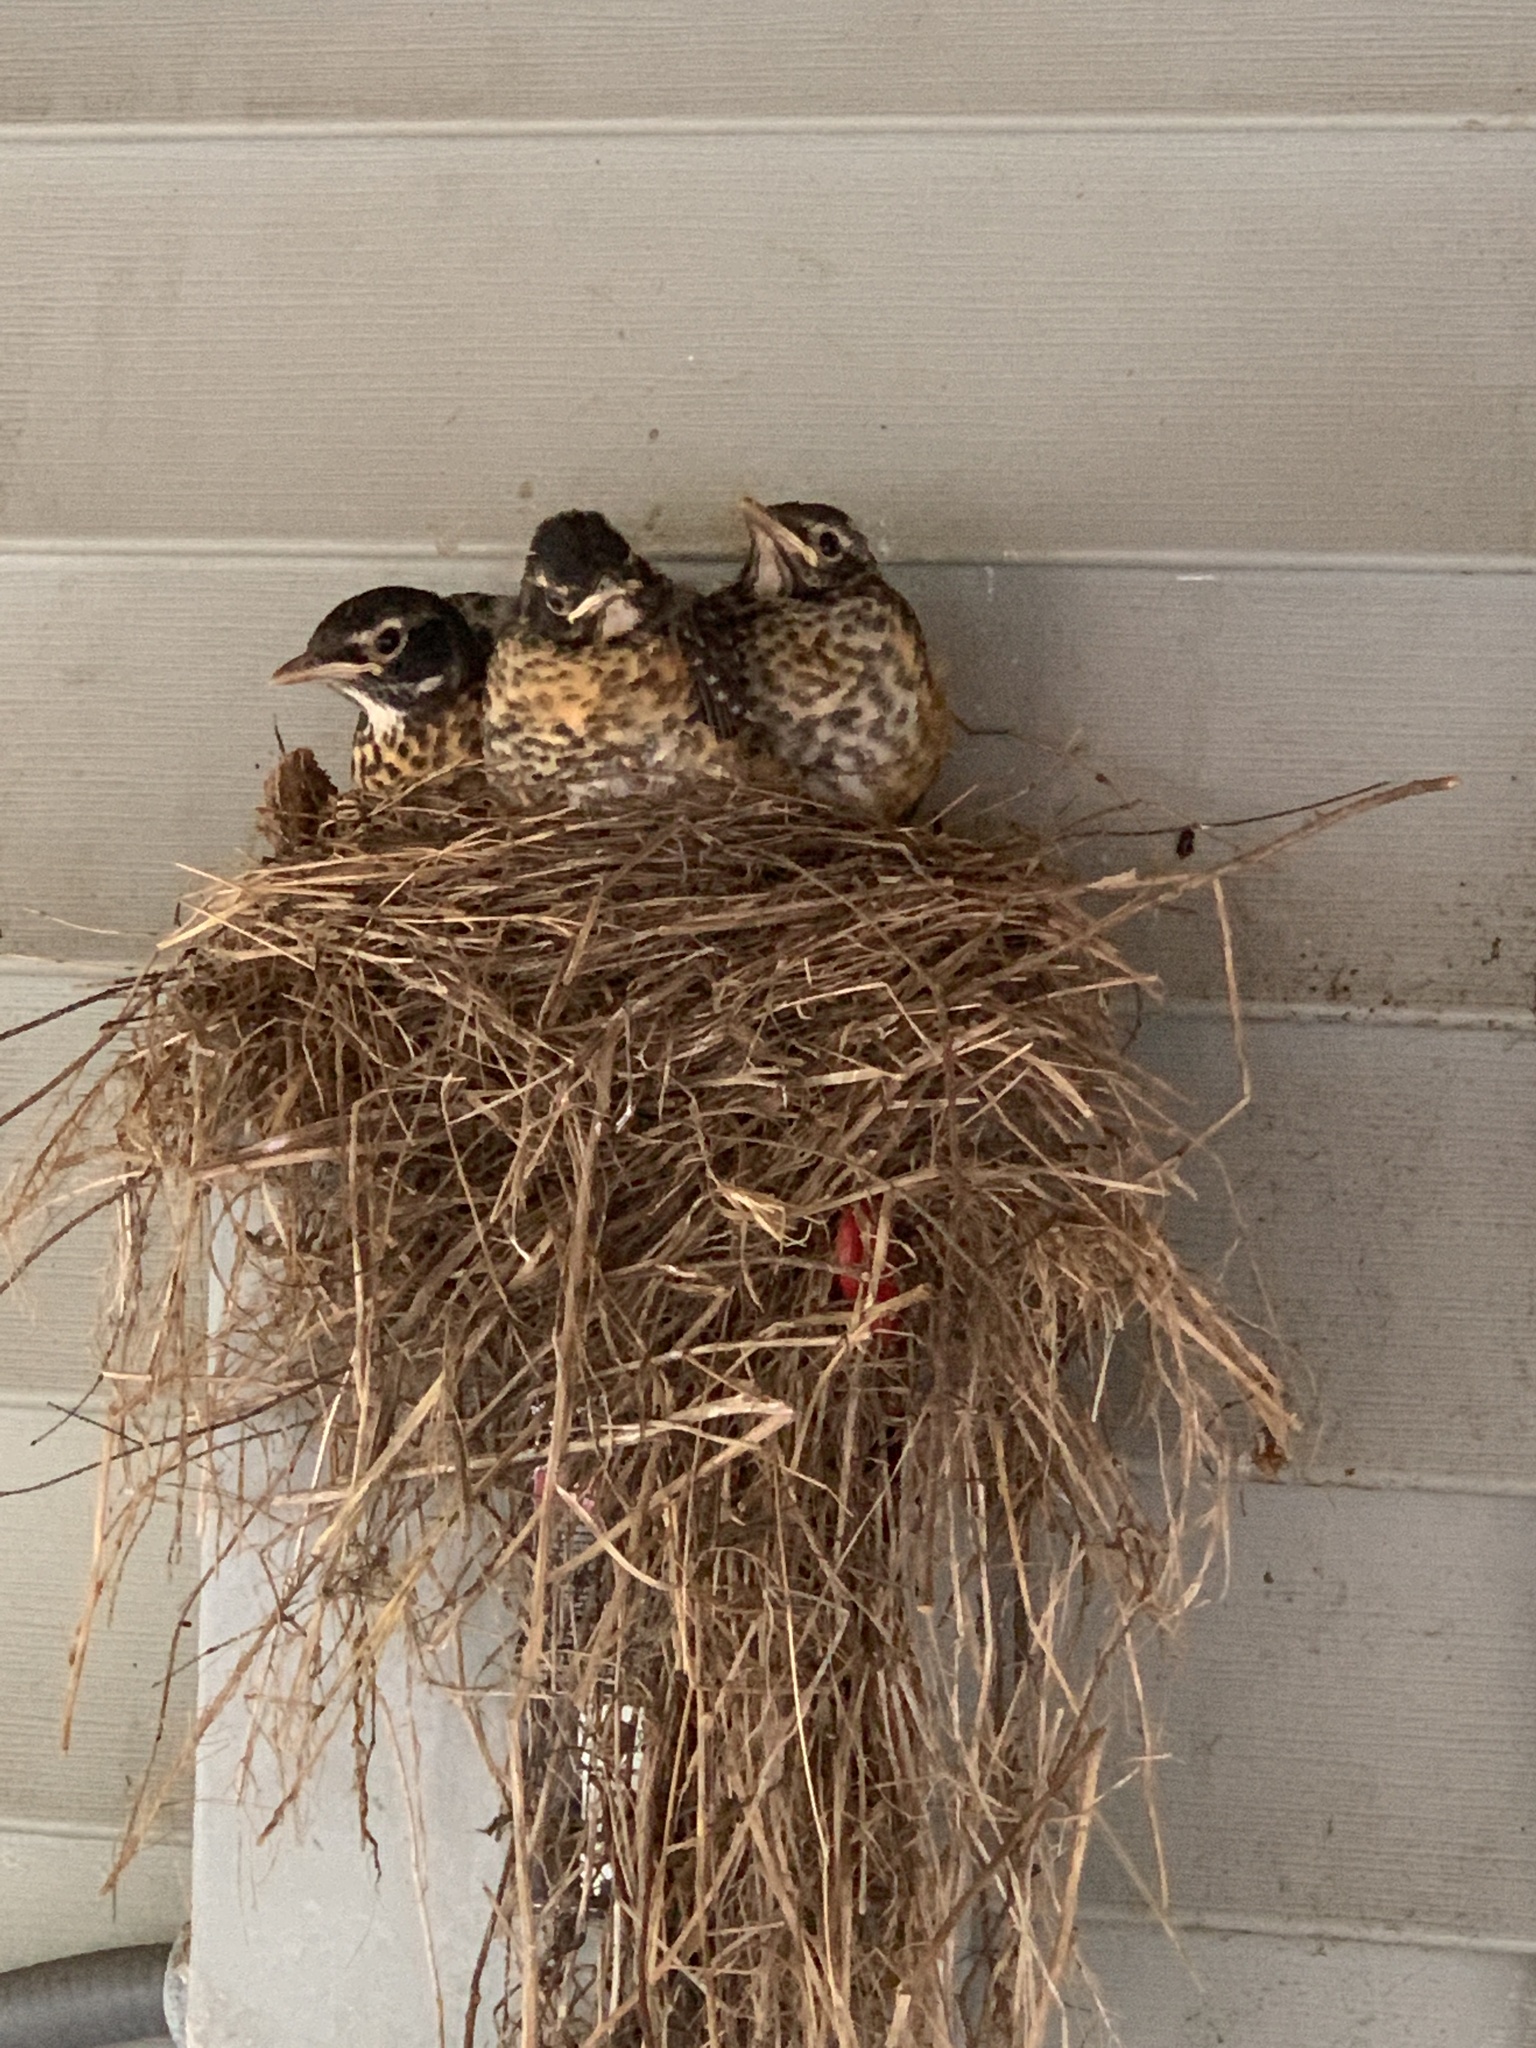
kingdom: Animalia
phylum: Chordata
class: Aves
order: Passeriformes
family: Turdidae
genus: Turdus
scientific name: Turdus migratorius
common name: American robin
